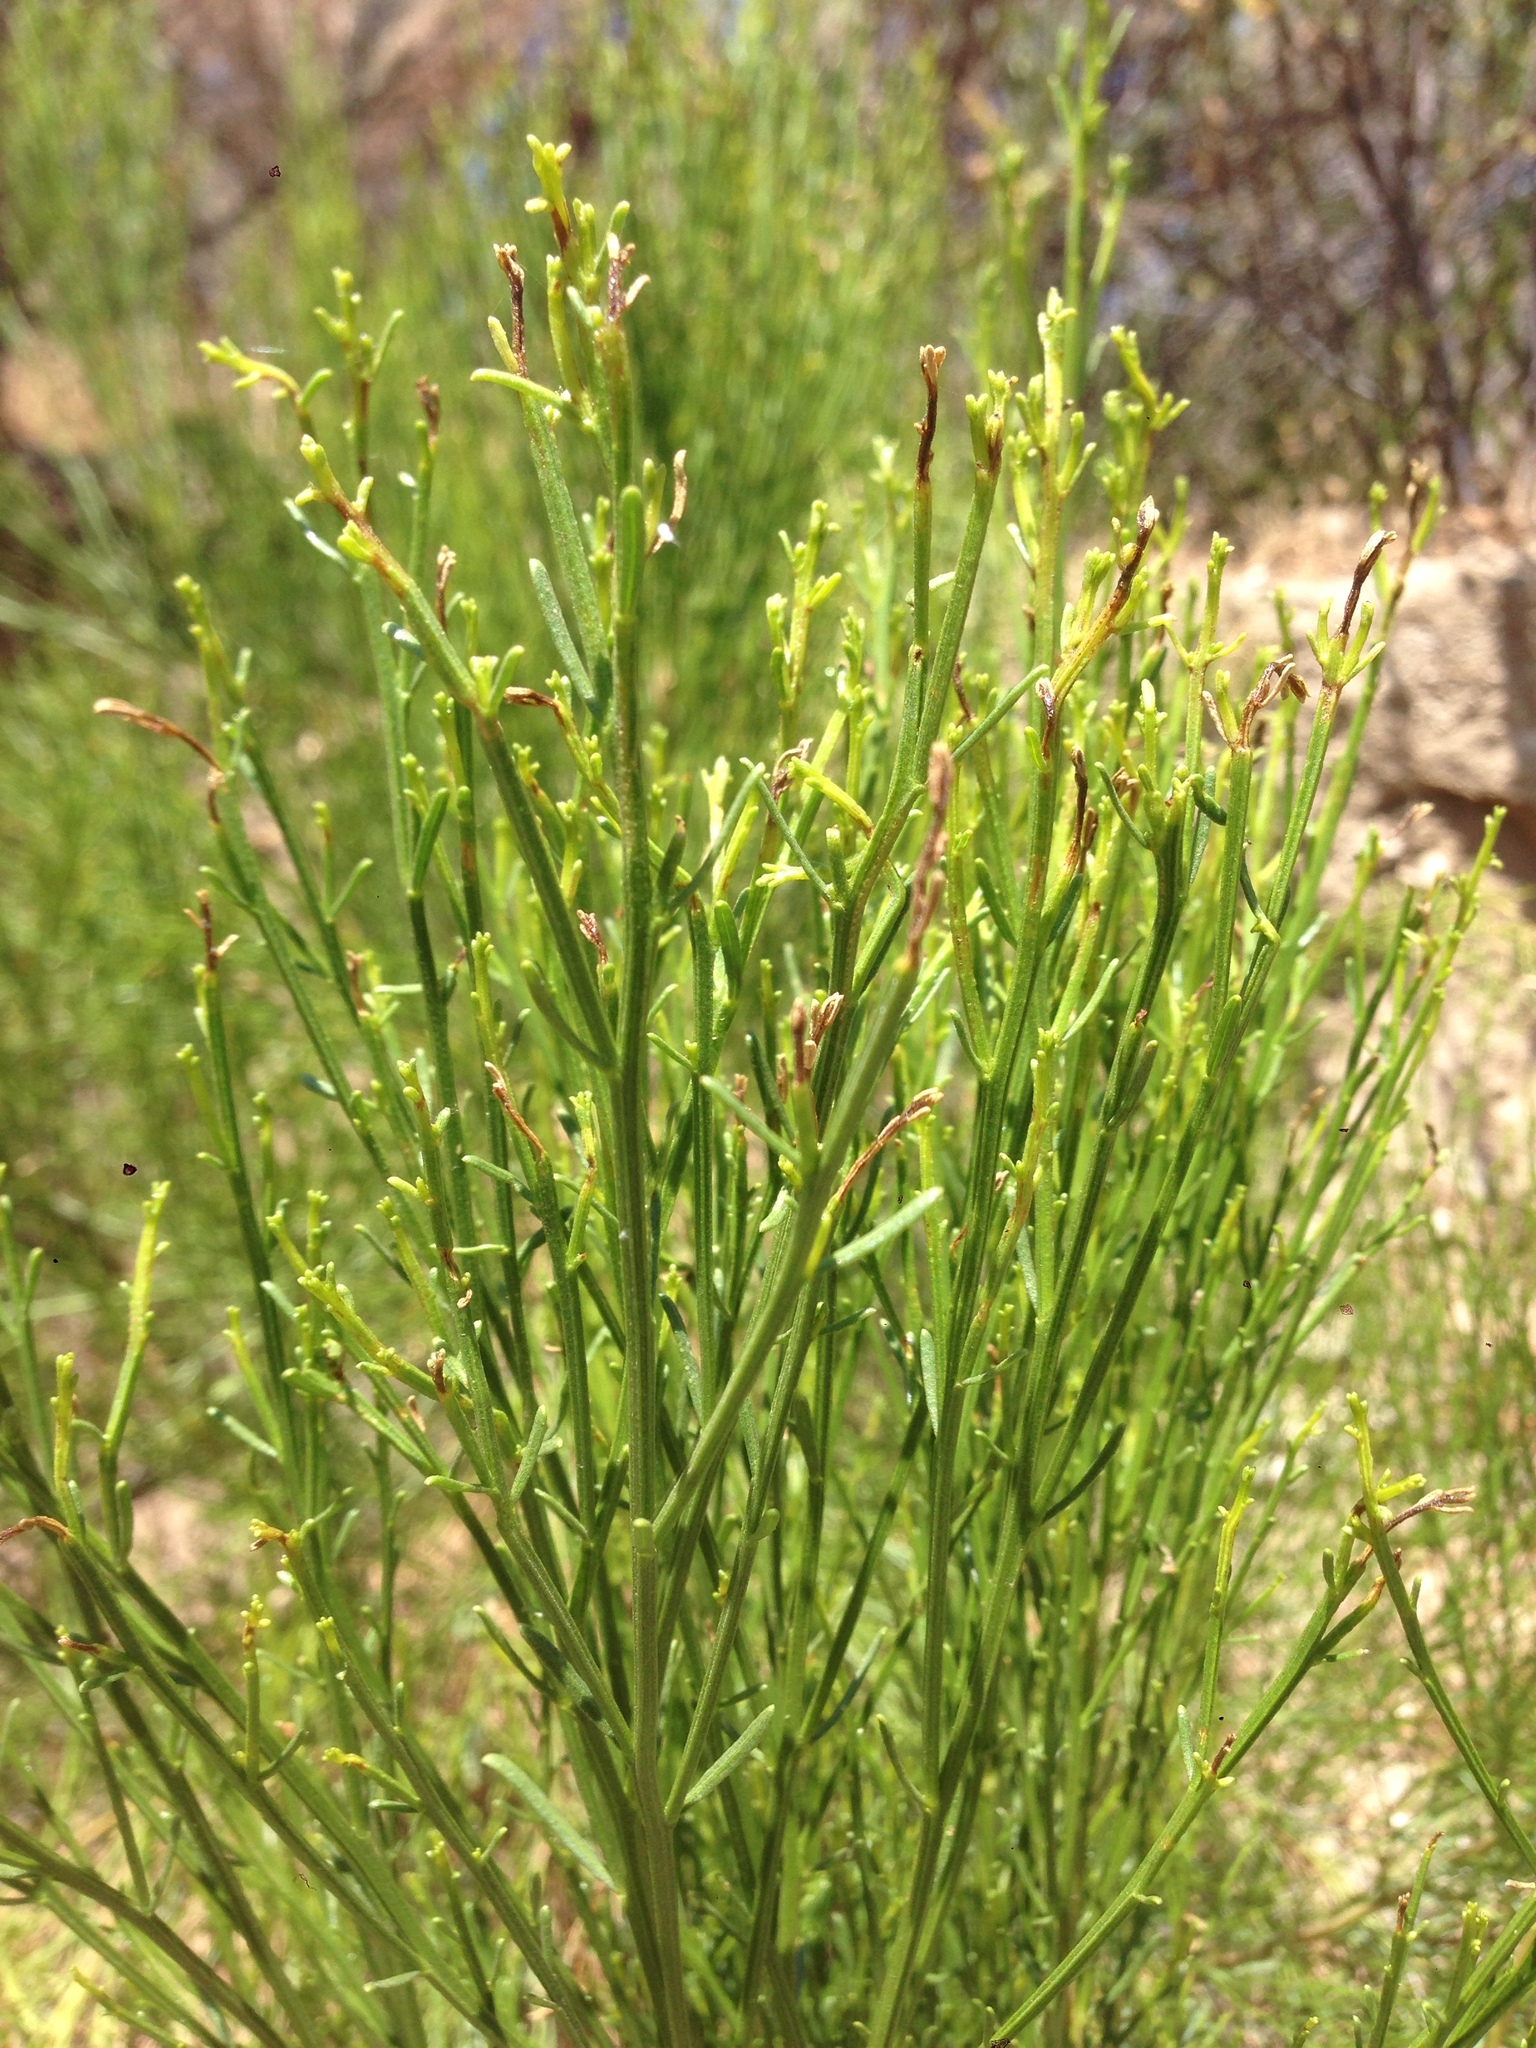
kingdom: Plantae
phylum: Tracheophyta
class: Magnoliopsida
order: Asterales
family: Asteraceae
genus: Baccharis
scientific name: Baccharis sarothroides
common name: Desert-broom
